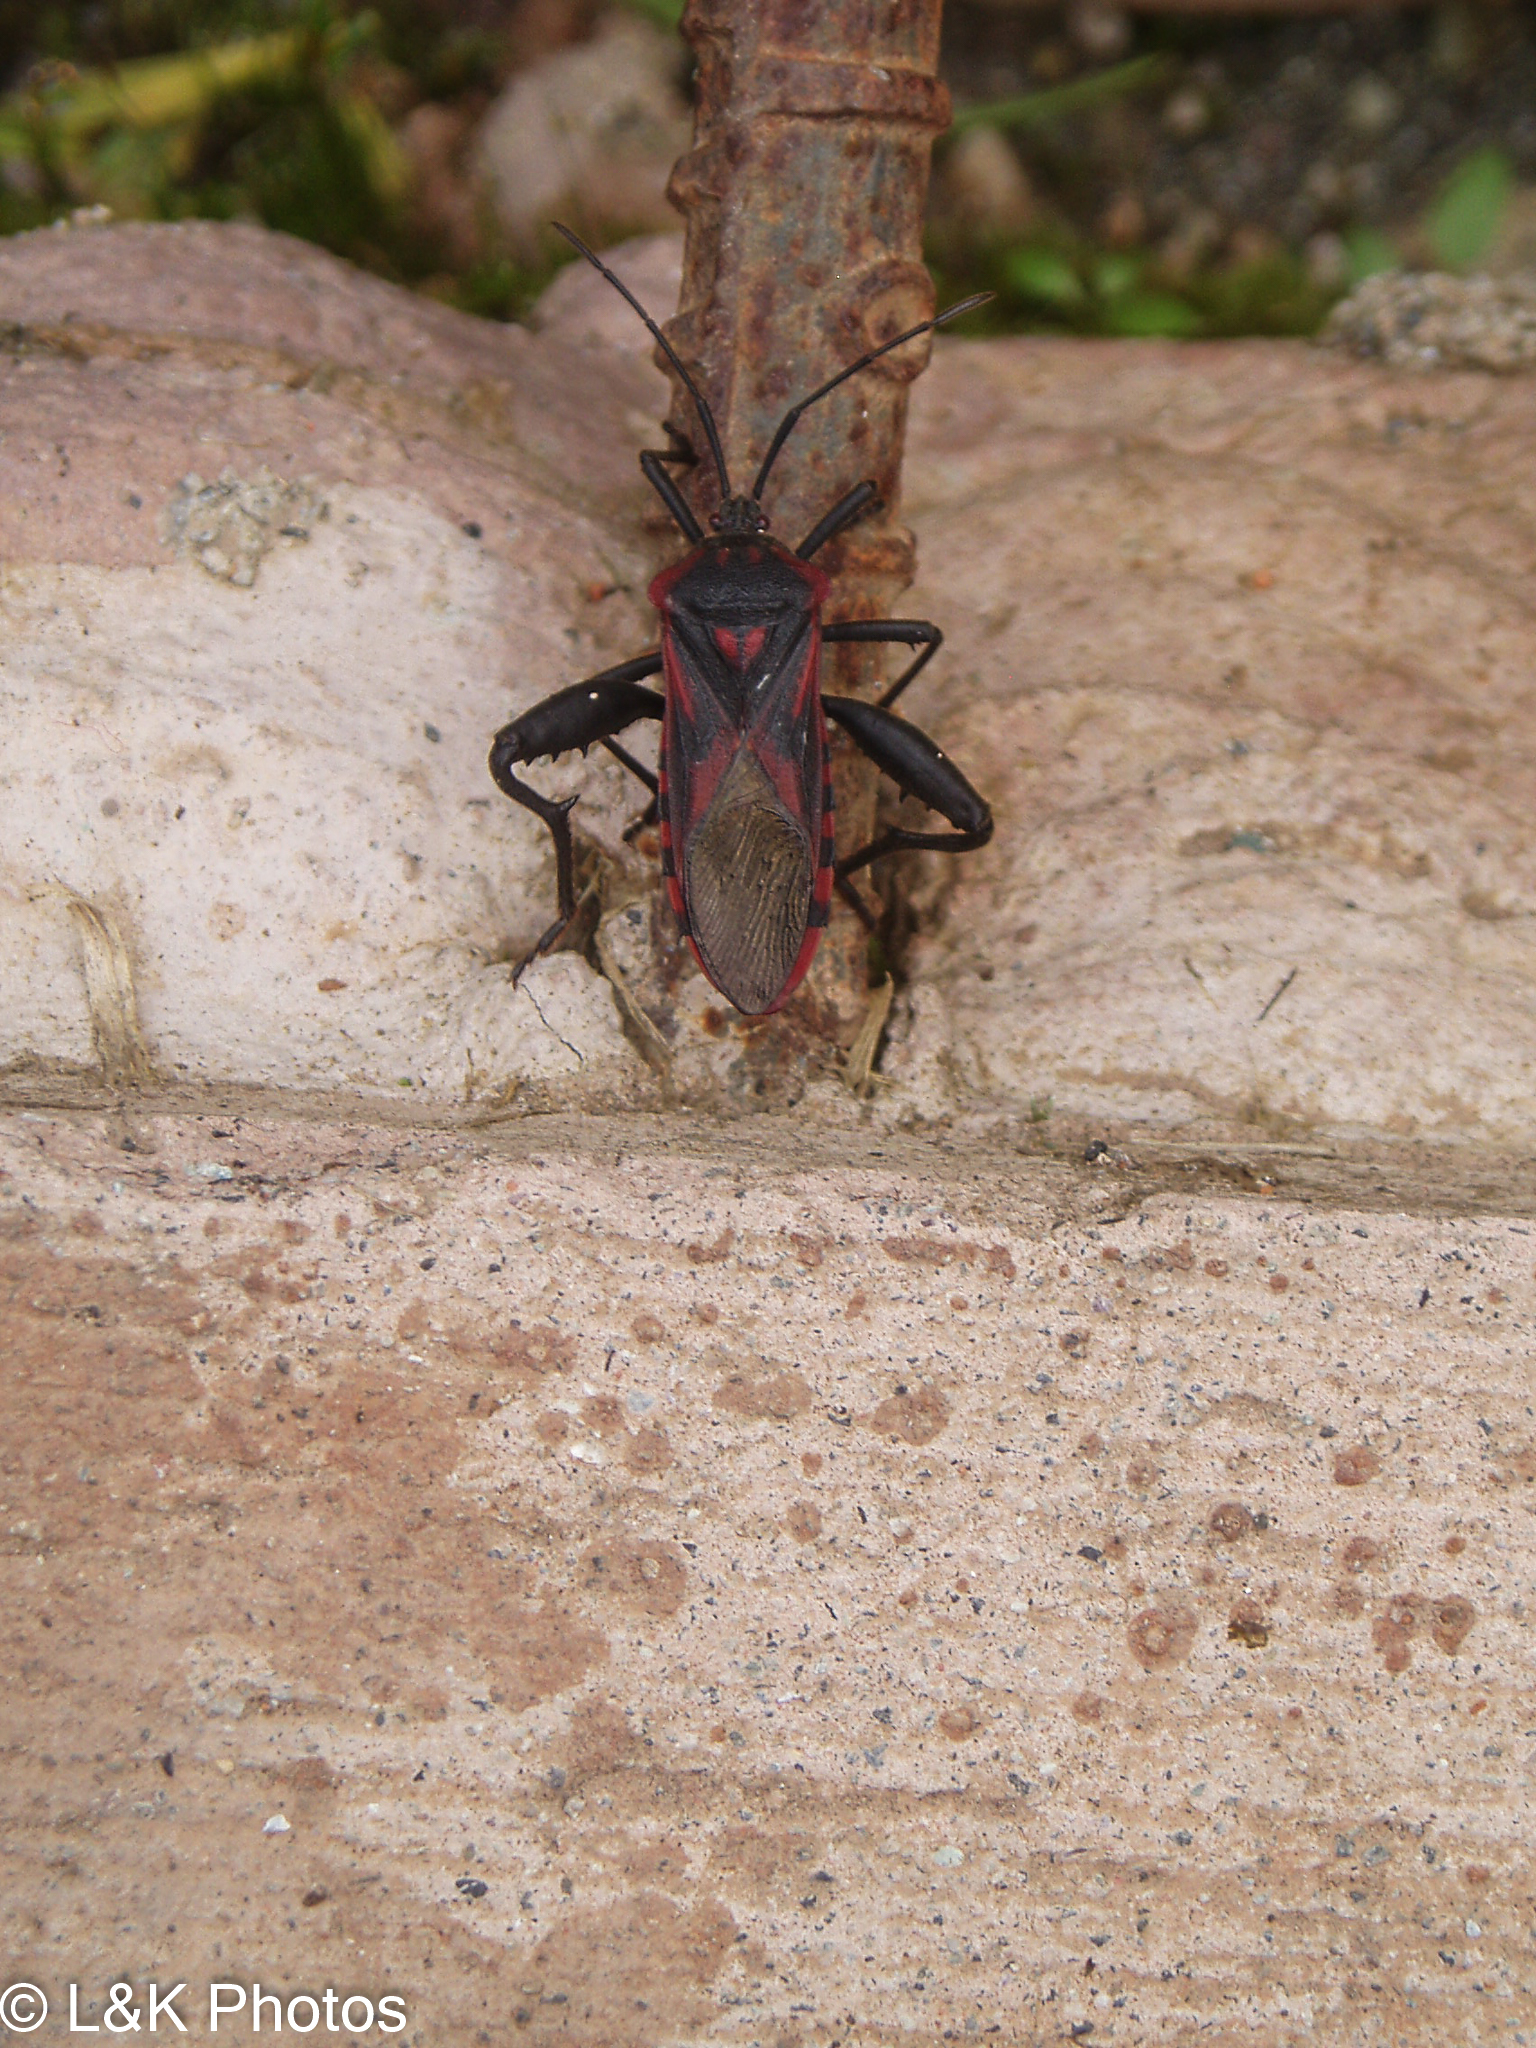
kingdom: Animalia
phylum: Arthropoda
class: Insecta
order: Hemiptera
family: Coreidae
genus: Piezogaster
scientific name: Piezogaster rubropictus
